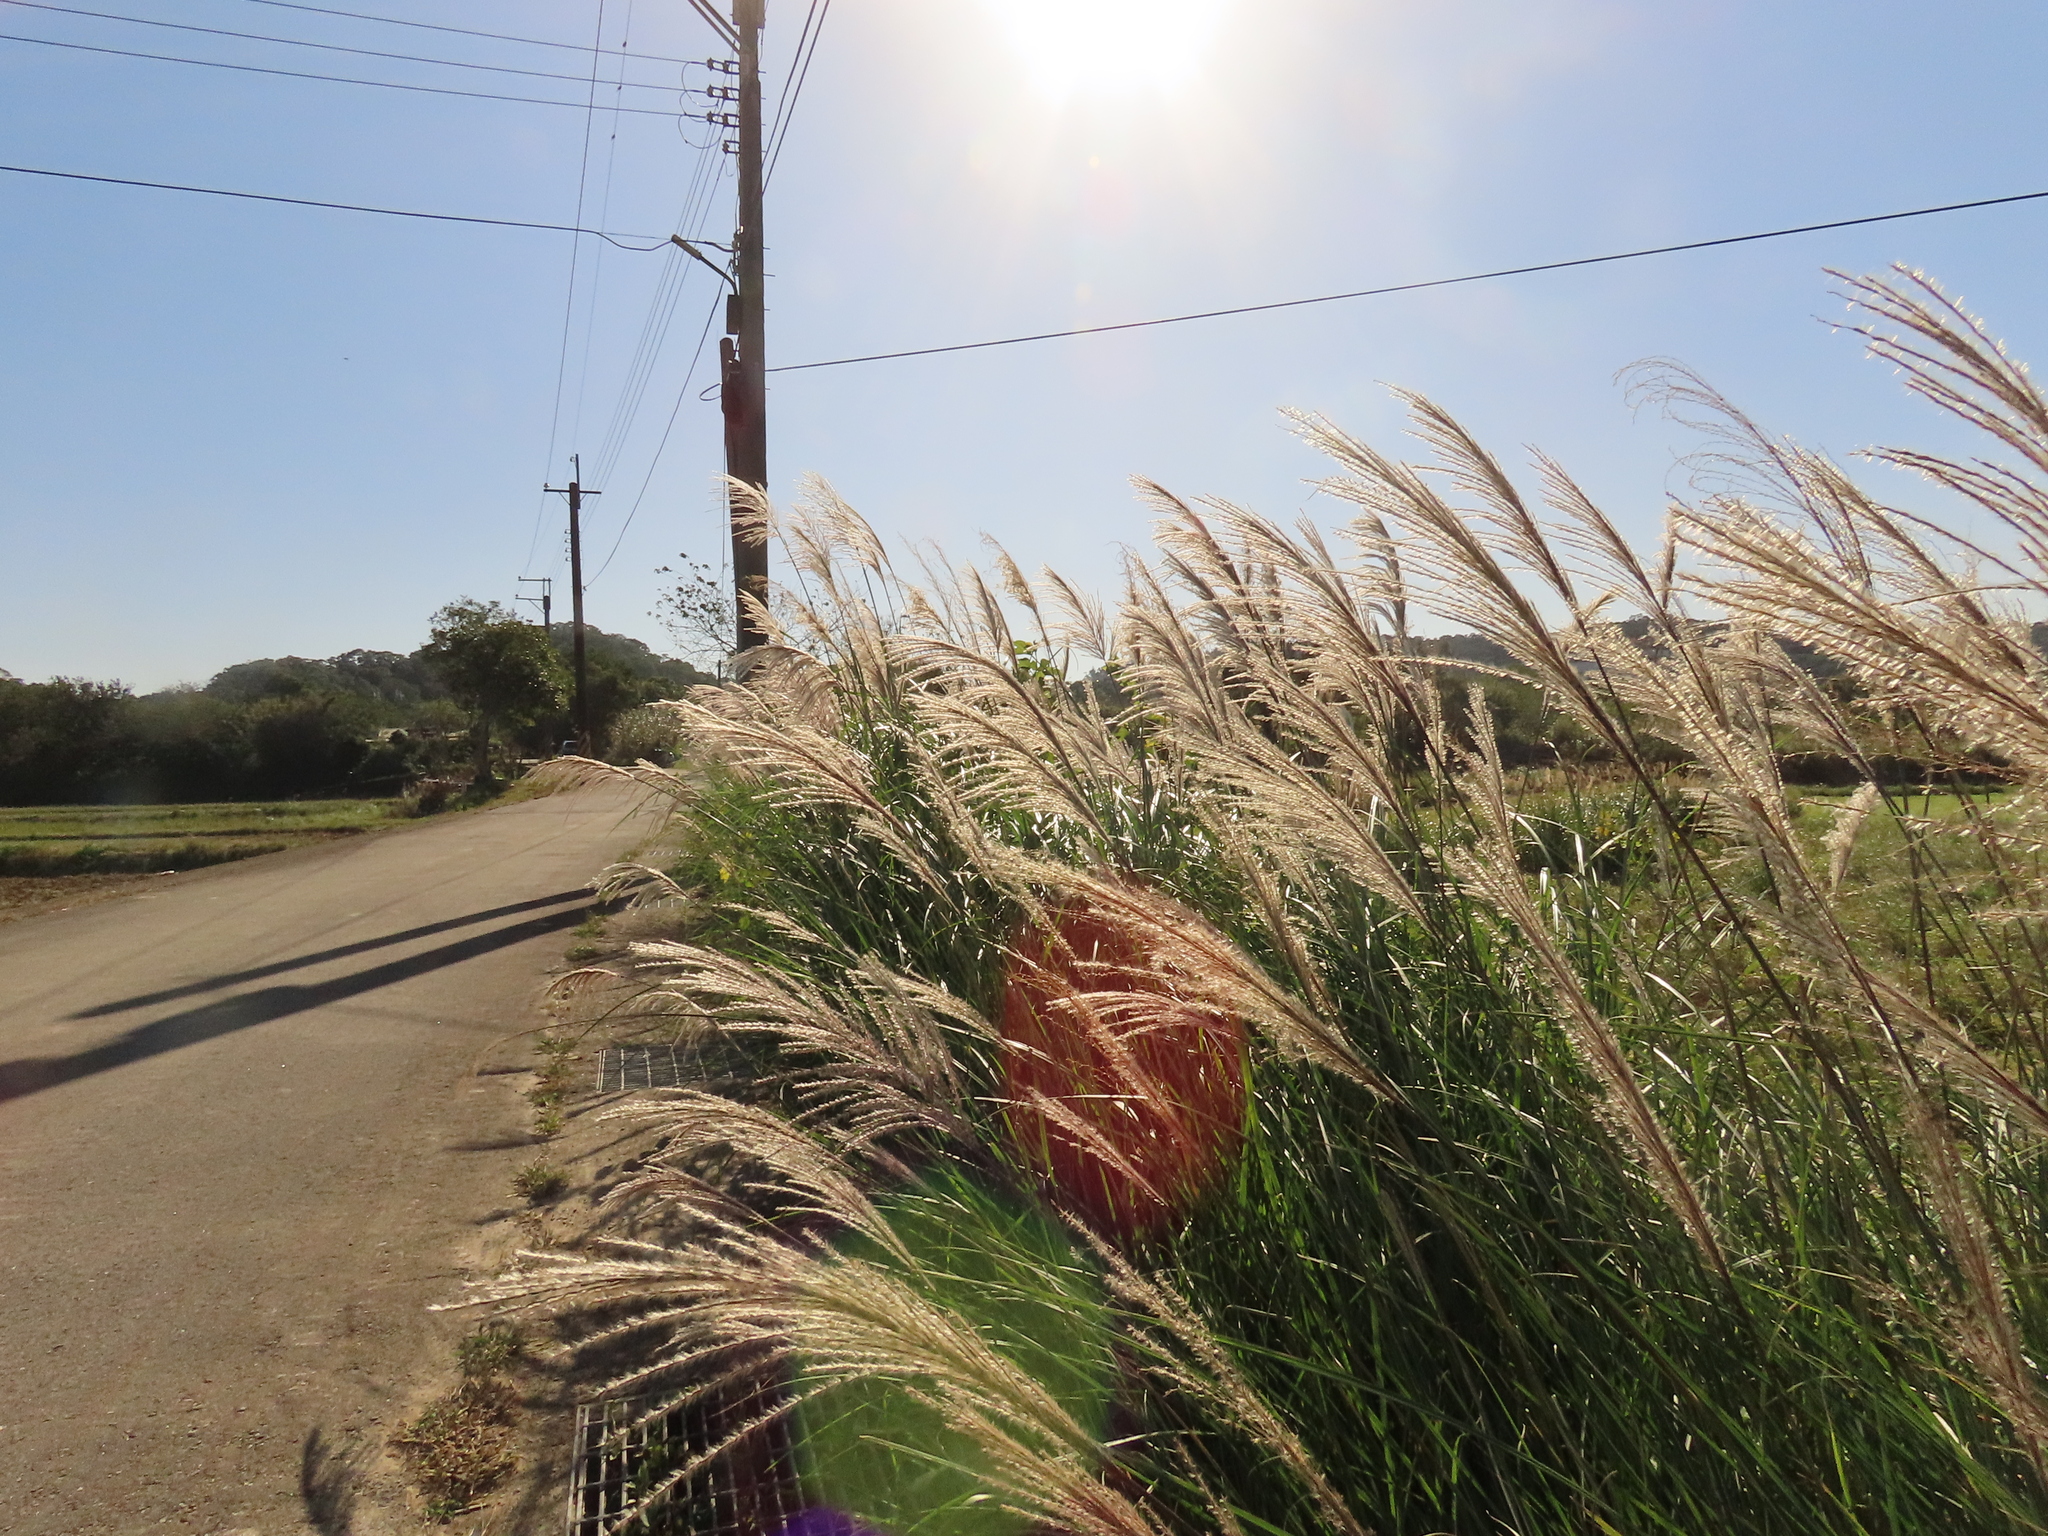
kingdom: Plantae
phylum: Tracheophyta
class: Liliopsida
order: Poales
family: Poaceae
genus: Miscanthus
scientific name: Miscanthus sinensis
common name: Chinese silvergrass
